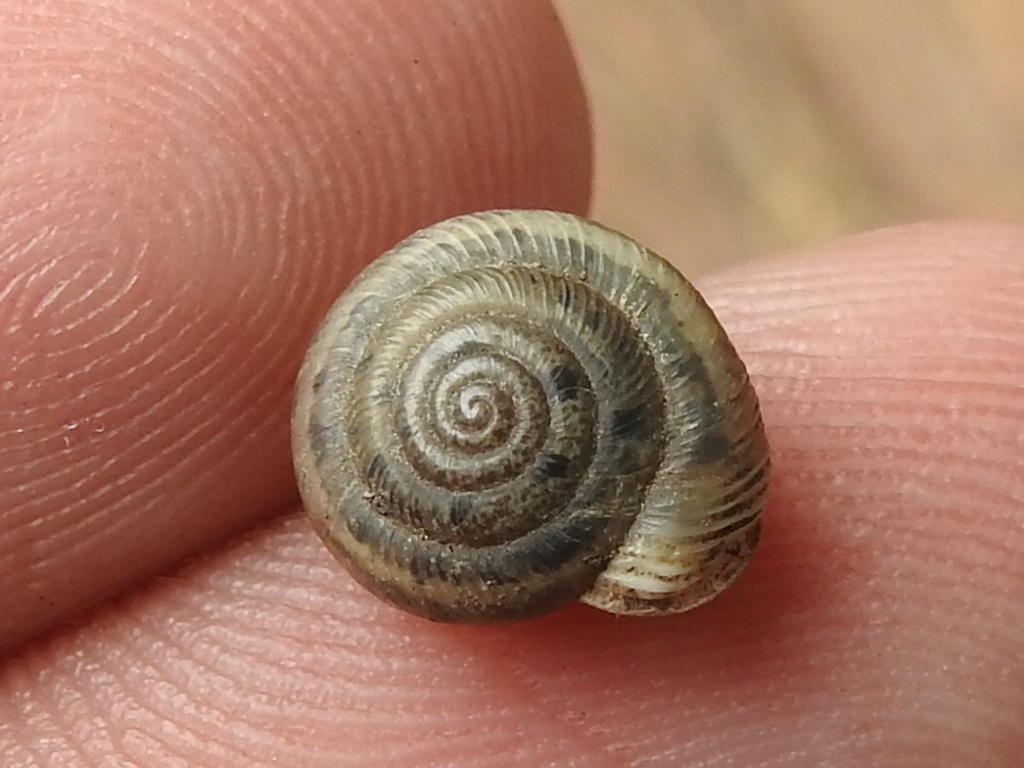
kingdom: Animalia
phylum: Mollusca
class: Gastropoda
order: Stylommatophora
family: Polygyridae
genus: Linisa
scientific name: Linisa texasiana
